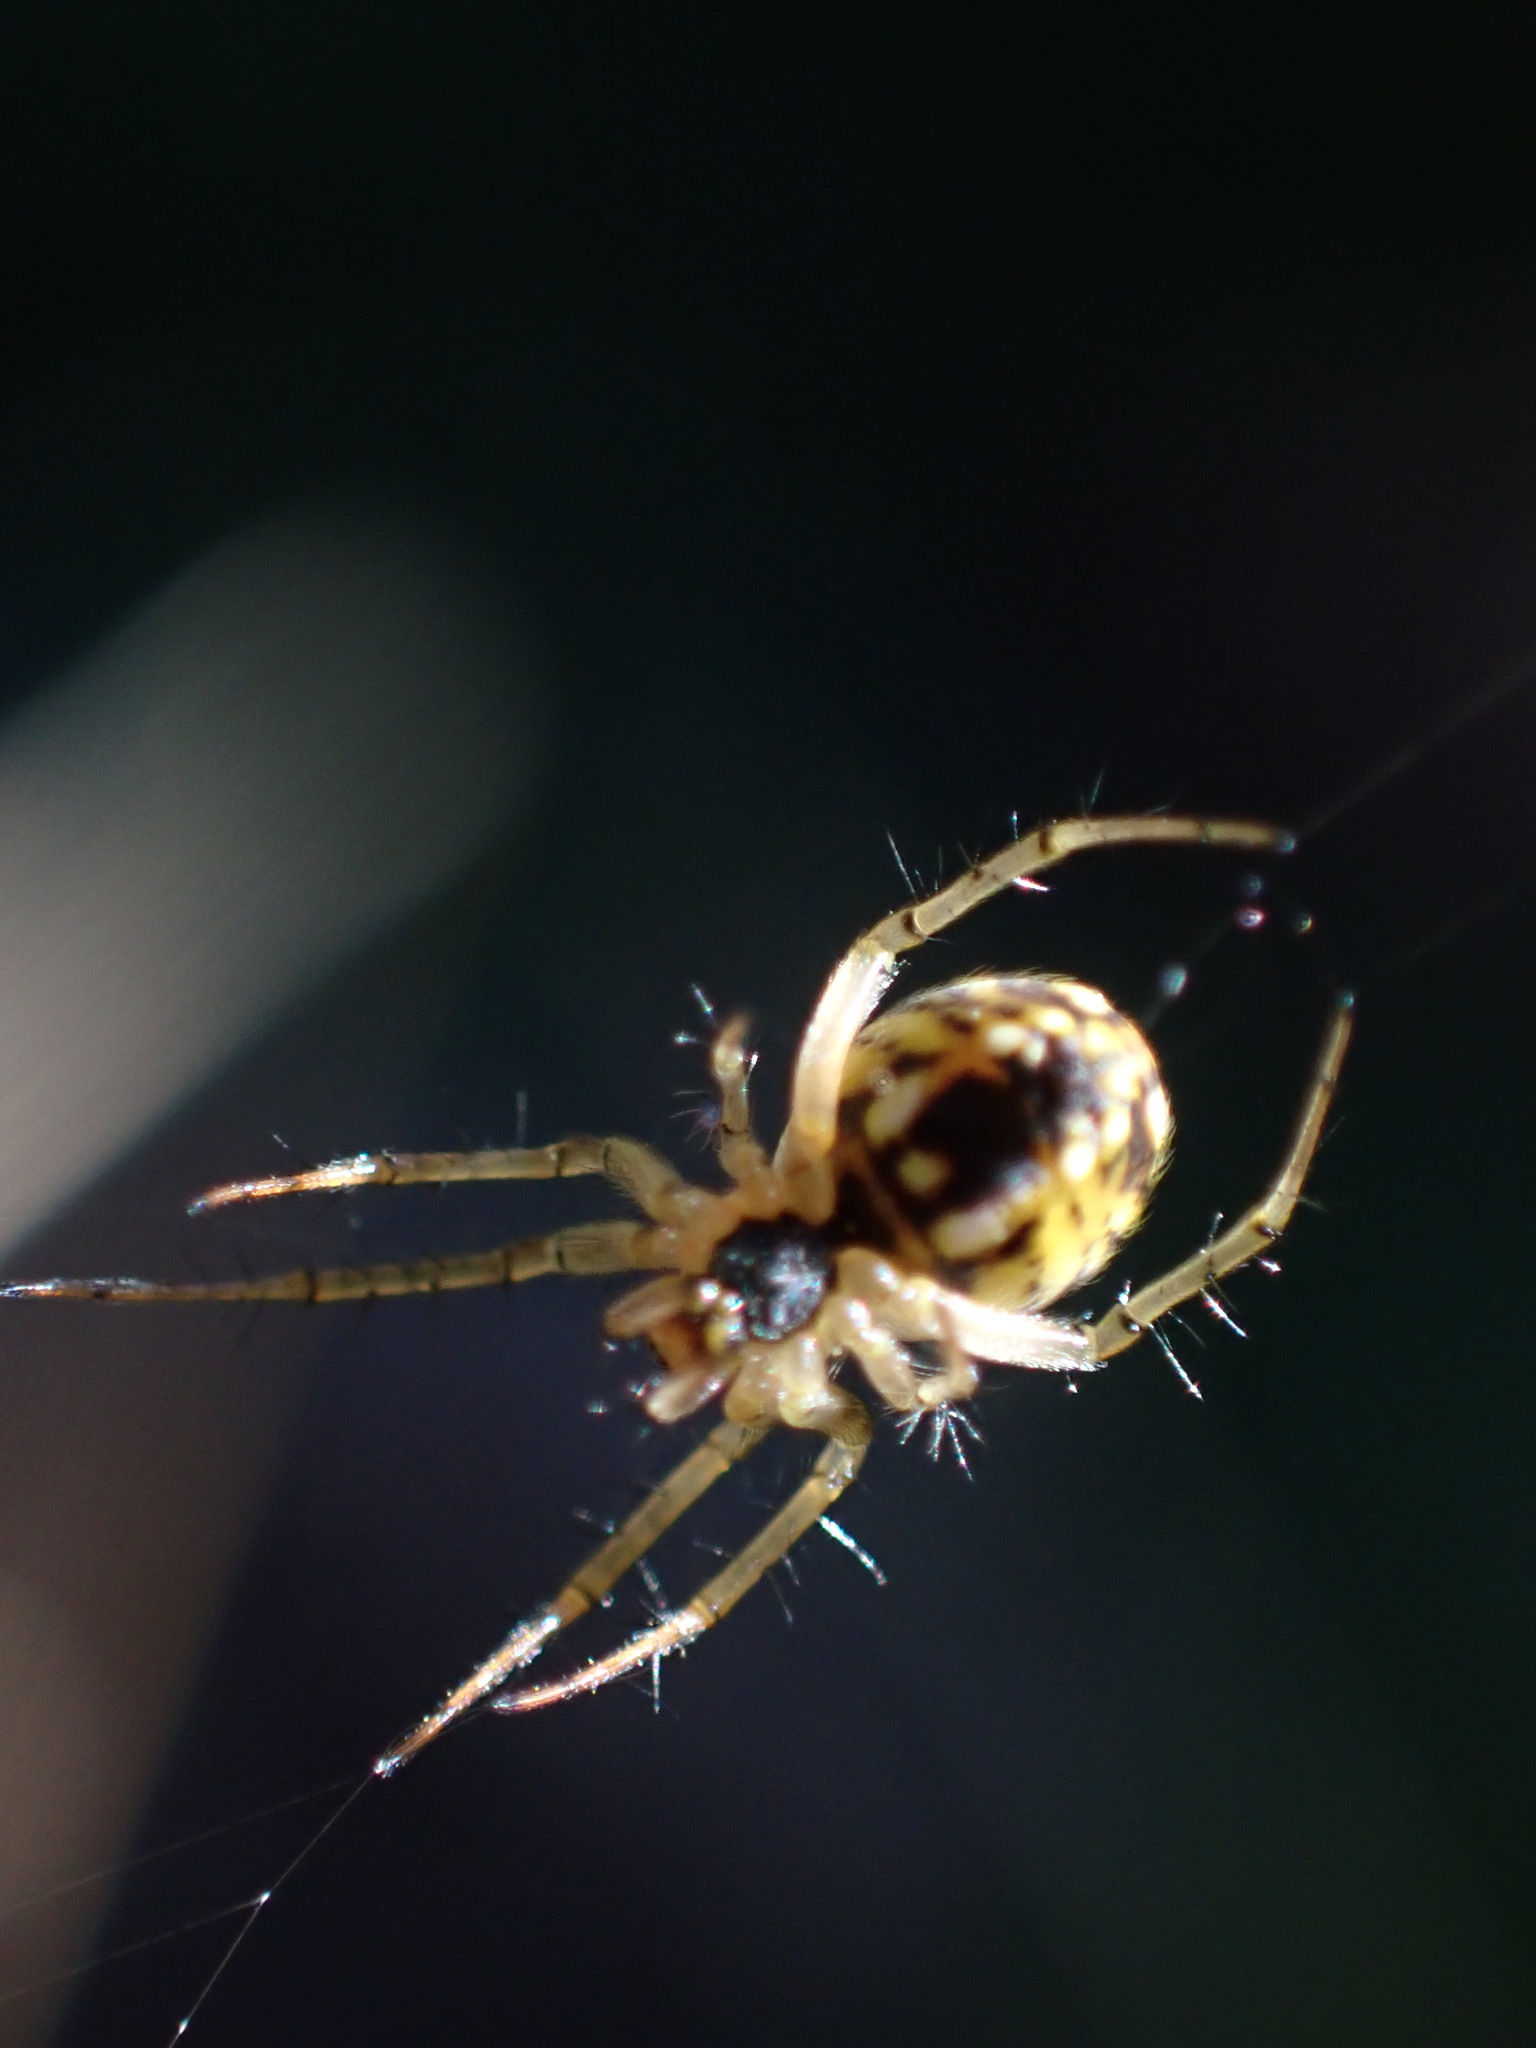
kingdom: Animalia
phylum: Arthropoda
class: Arachnida
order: Araneae
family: Araneidae
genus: Mangora
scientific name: Mangora acalypha
